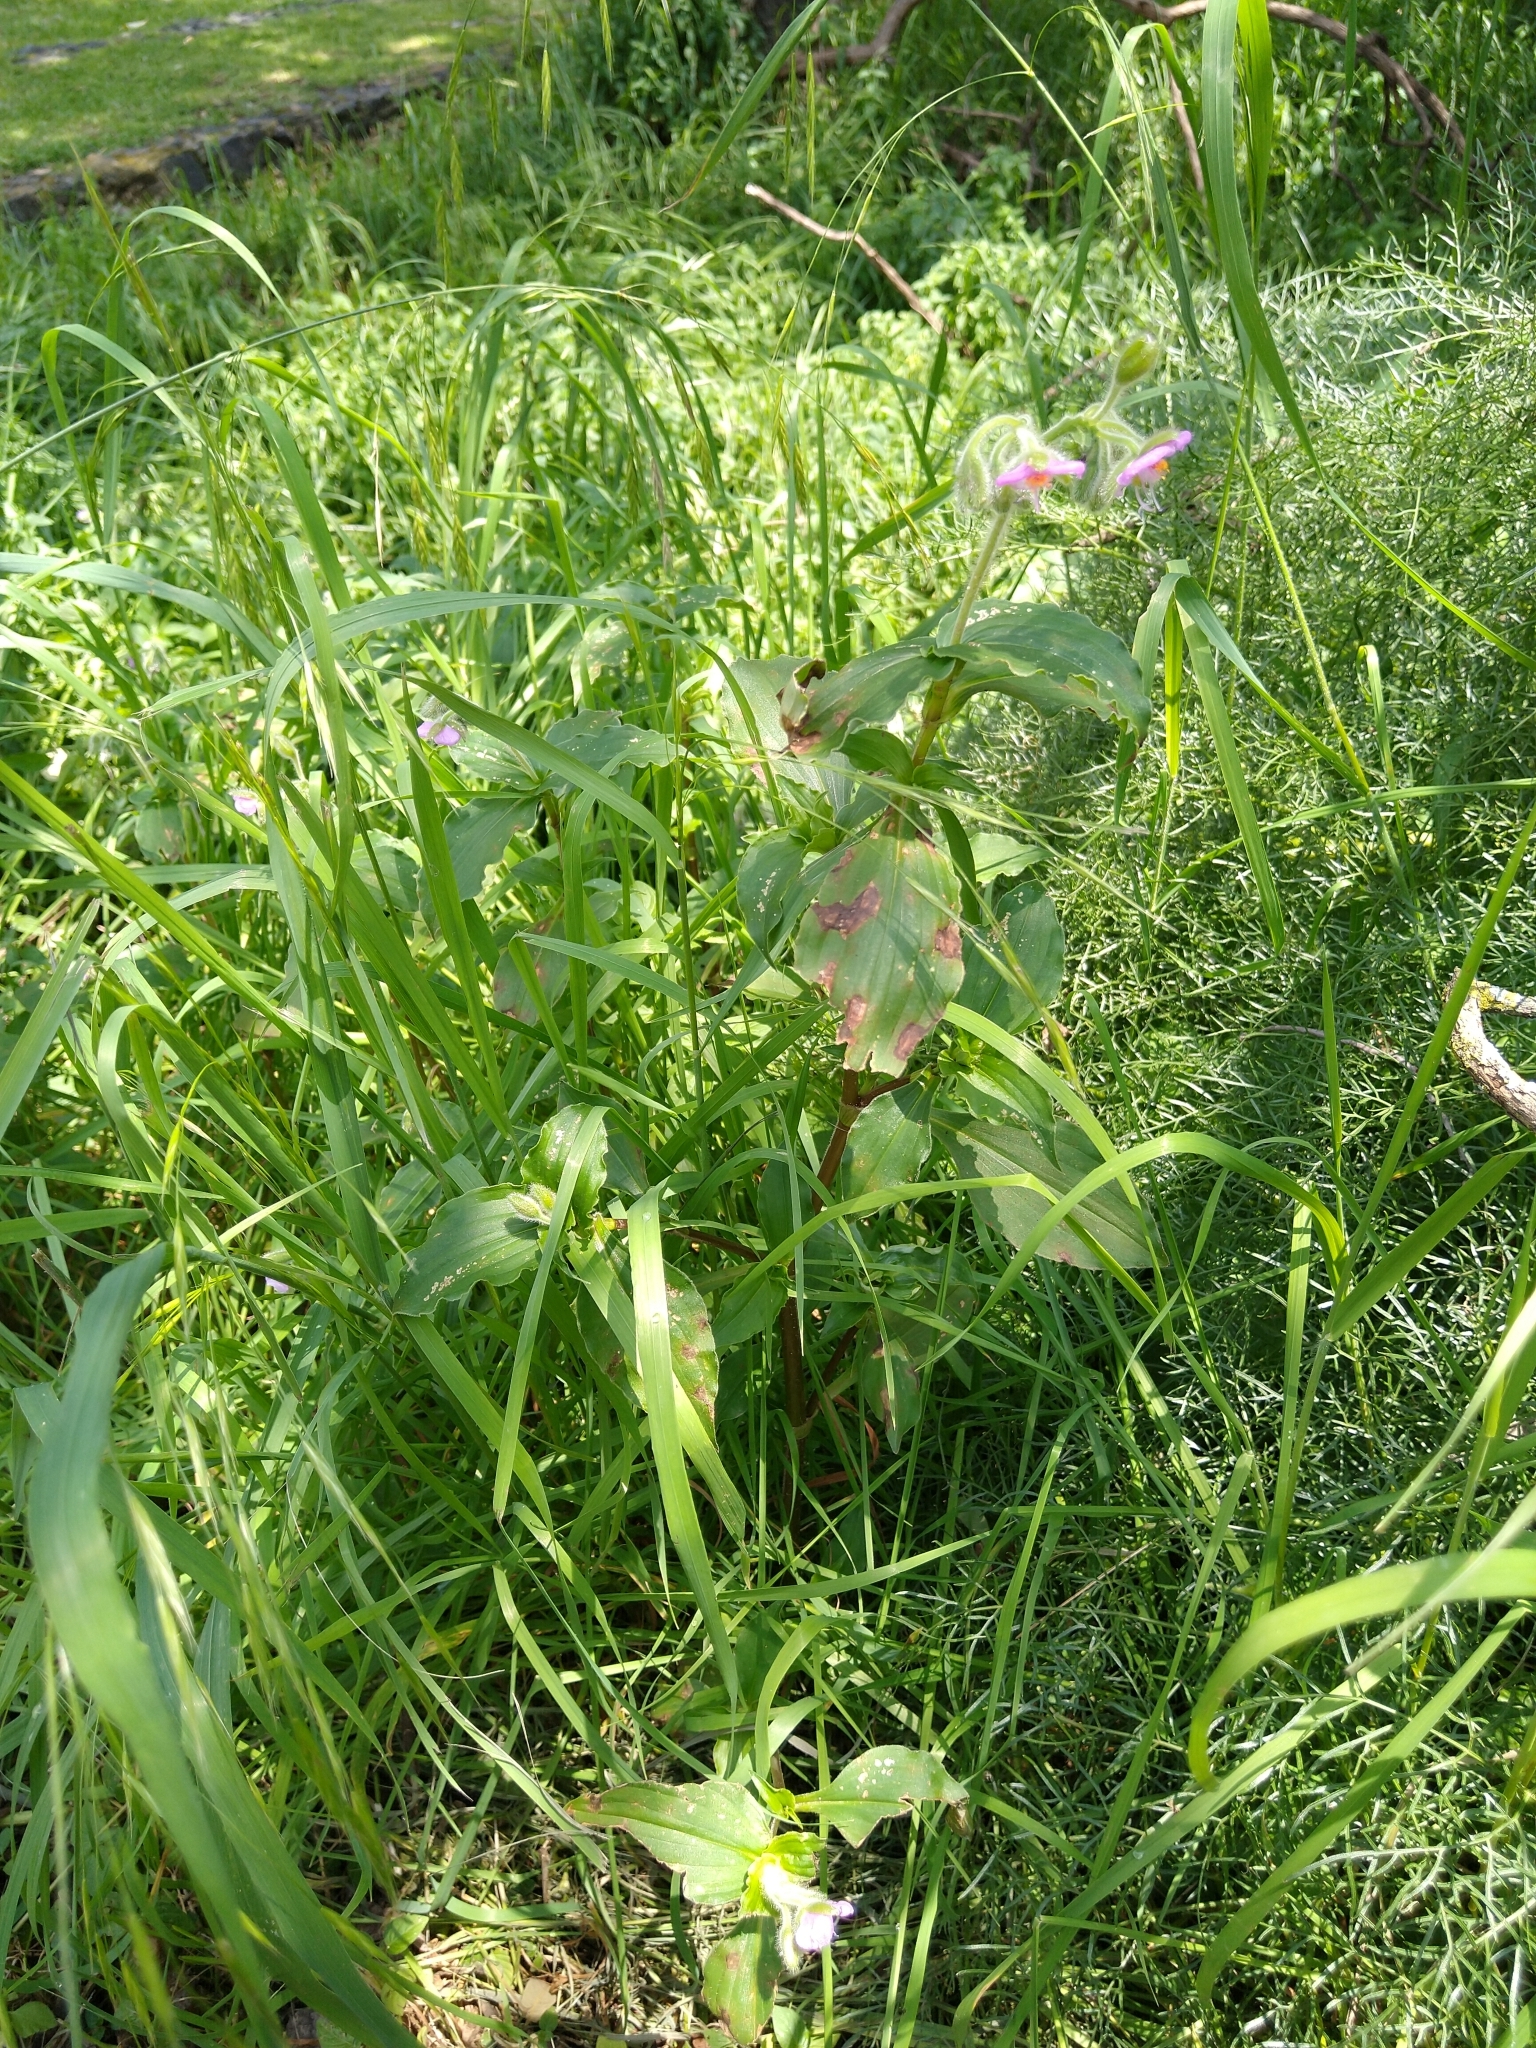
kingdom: Plantae
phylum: Tracheophyta
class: Liliopsida
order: Commelinales
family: Commelinaceae
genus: Tinantia
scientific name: Tinantia erecta
